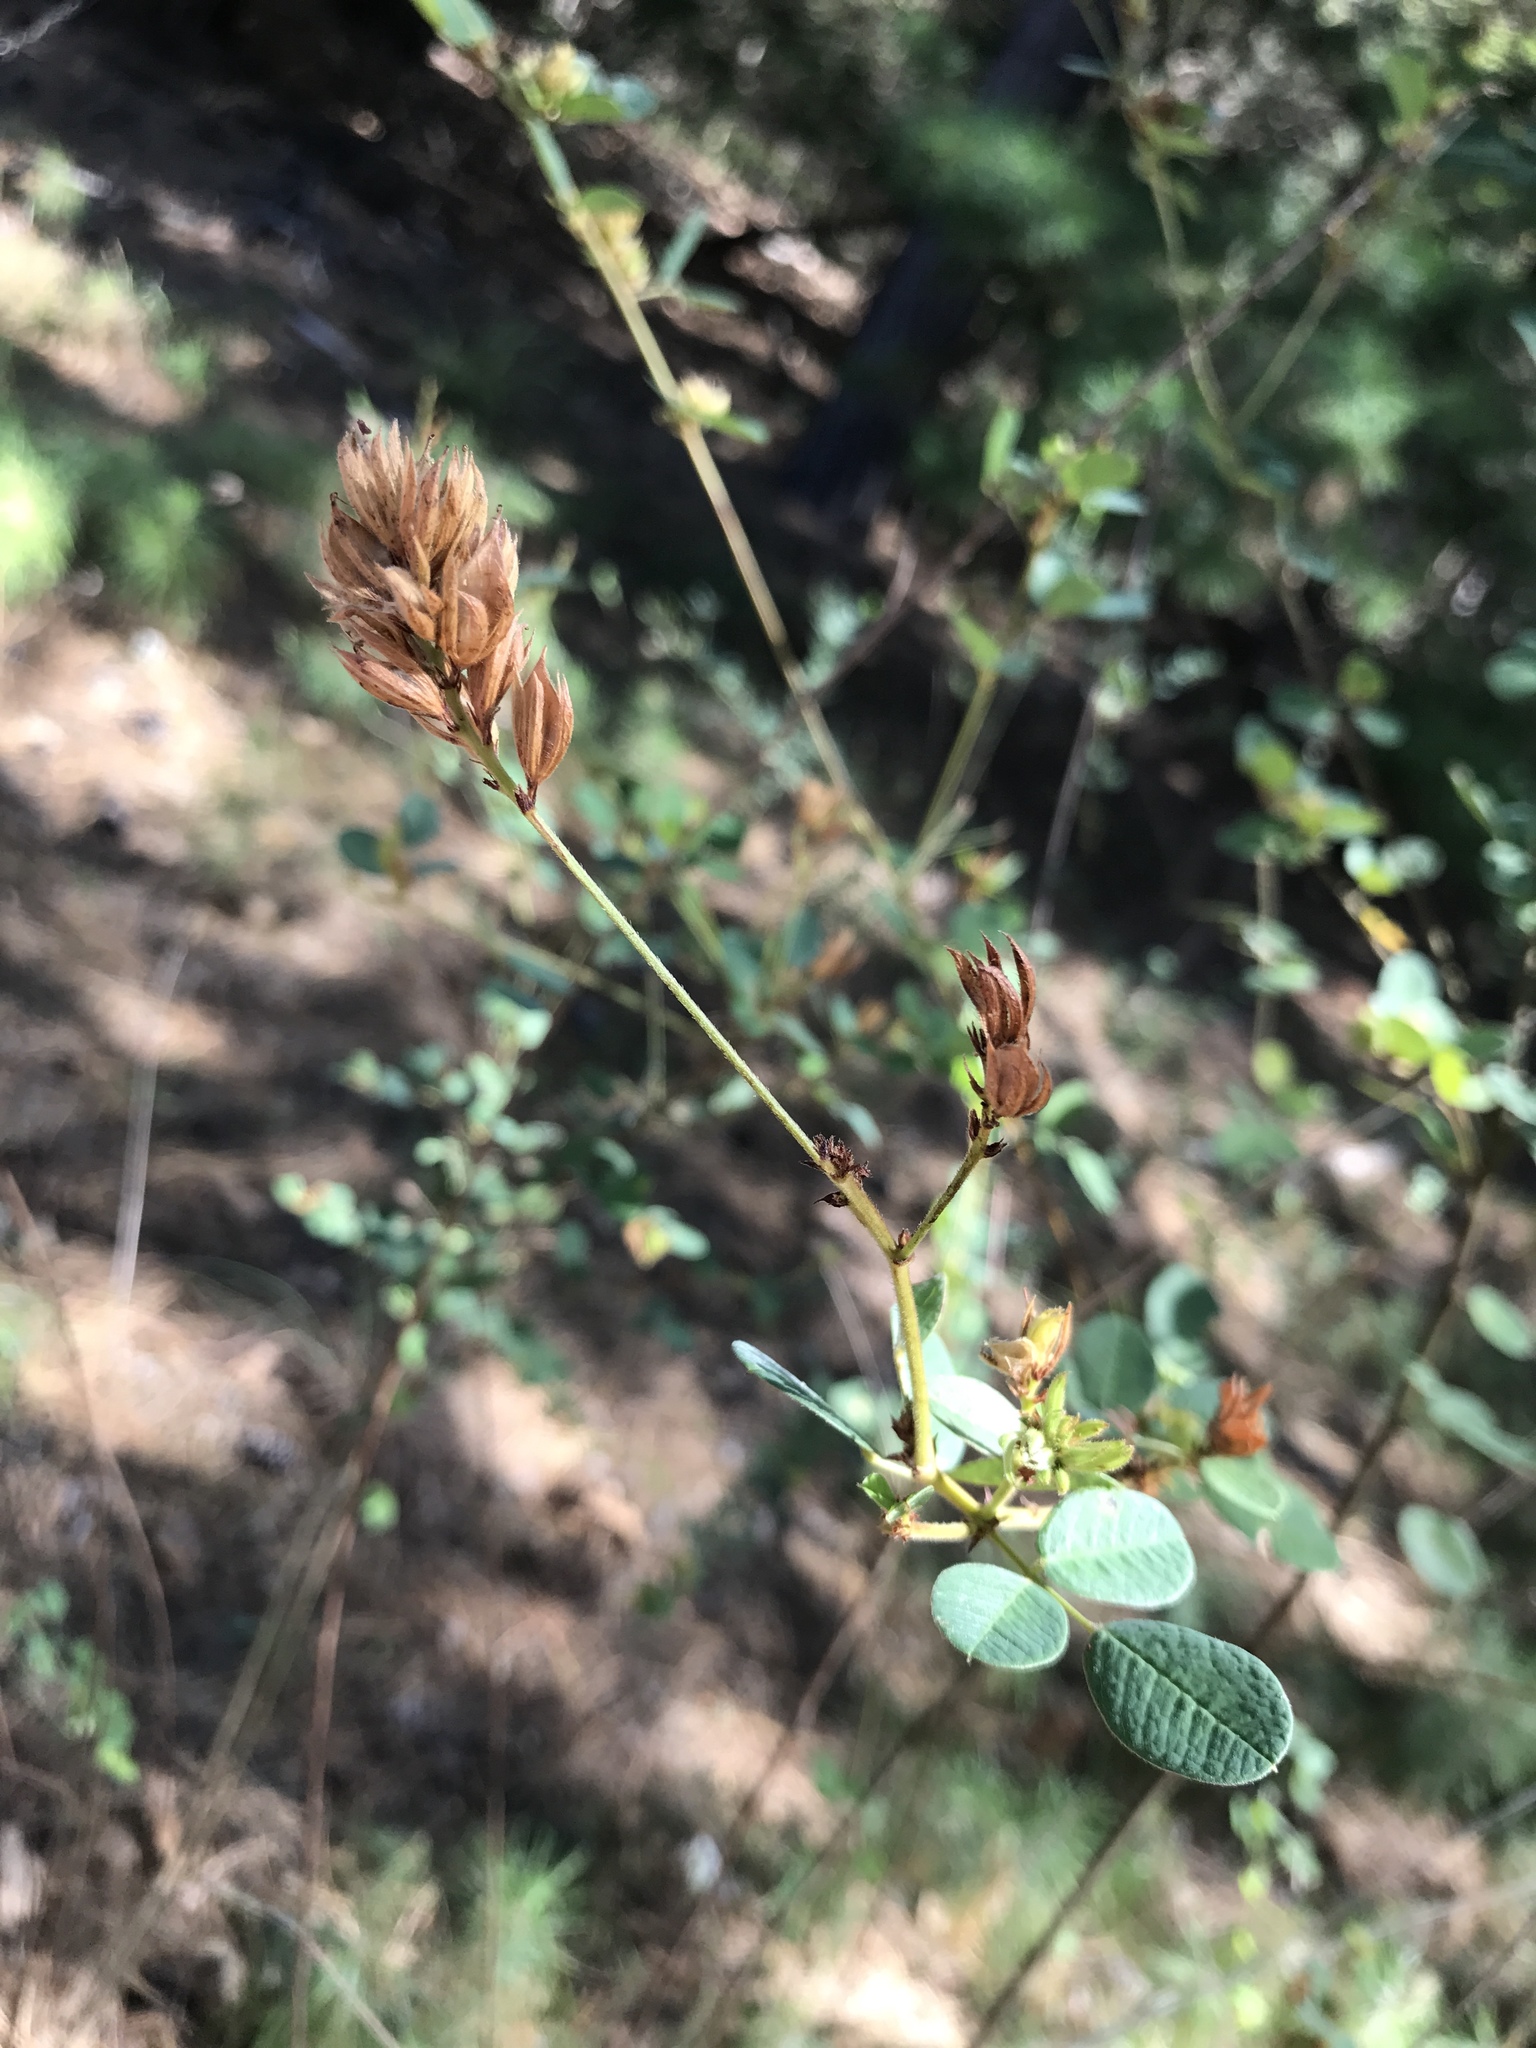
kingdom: Plantae
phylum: Tracheophyta
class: Magnoliopsida
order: Fabales
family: Fabaceae
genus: Lespedeza
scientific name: Lespedeza hirta
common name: Hairy lespedeza
